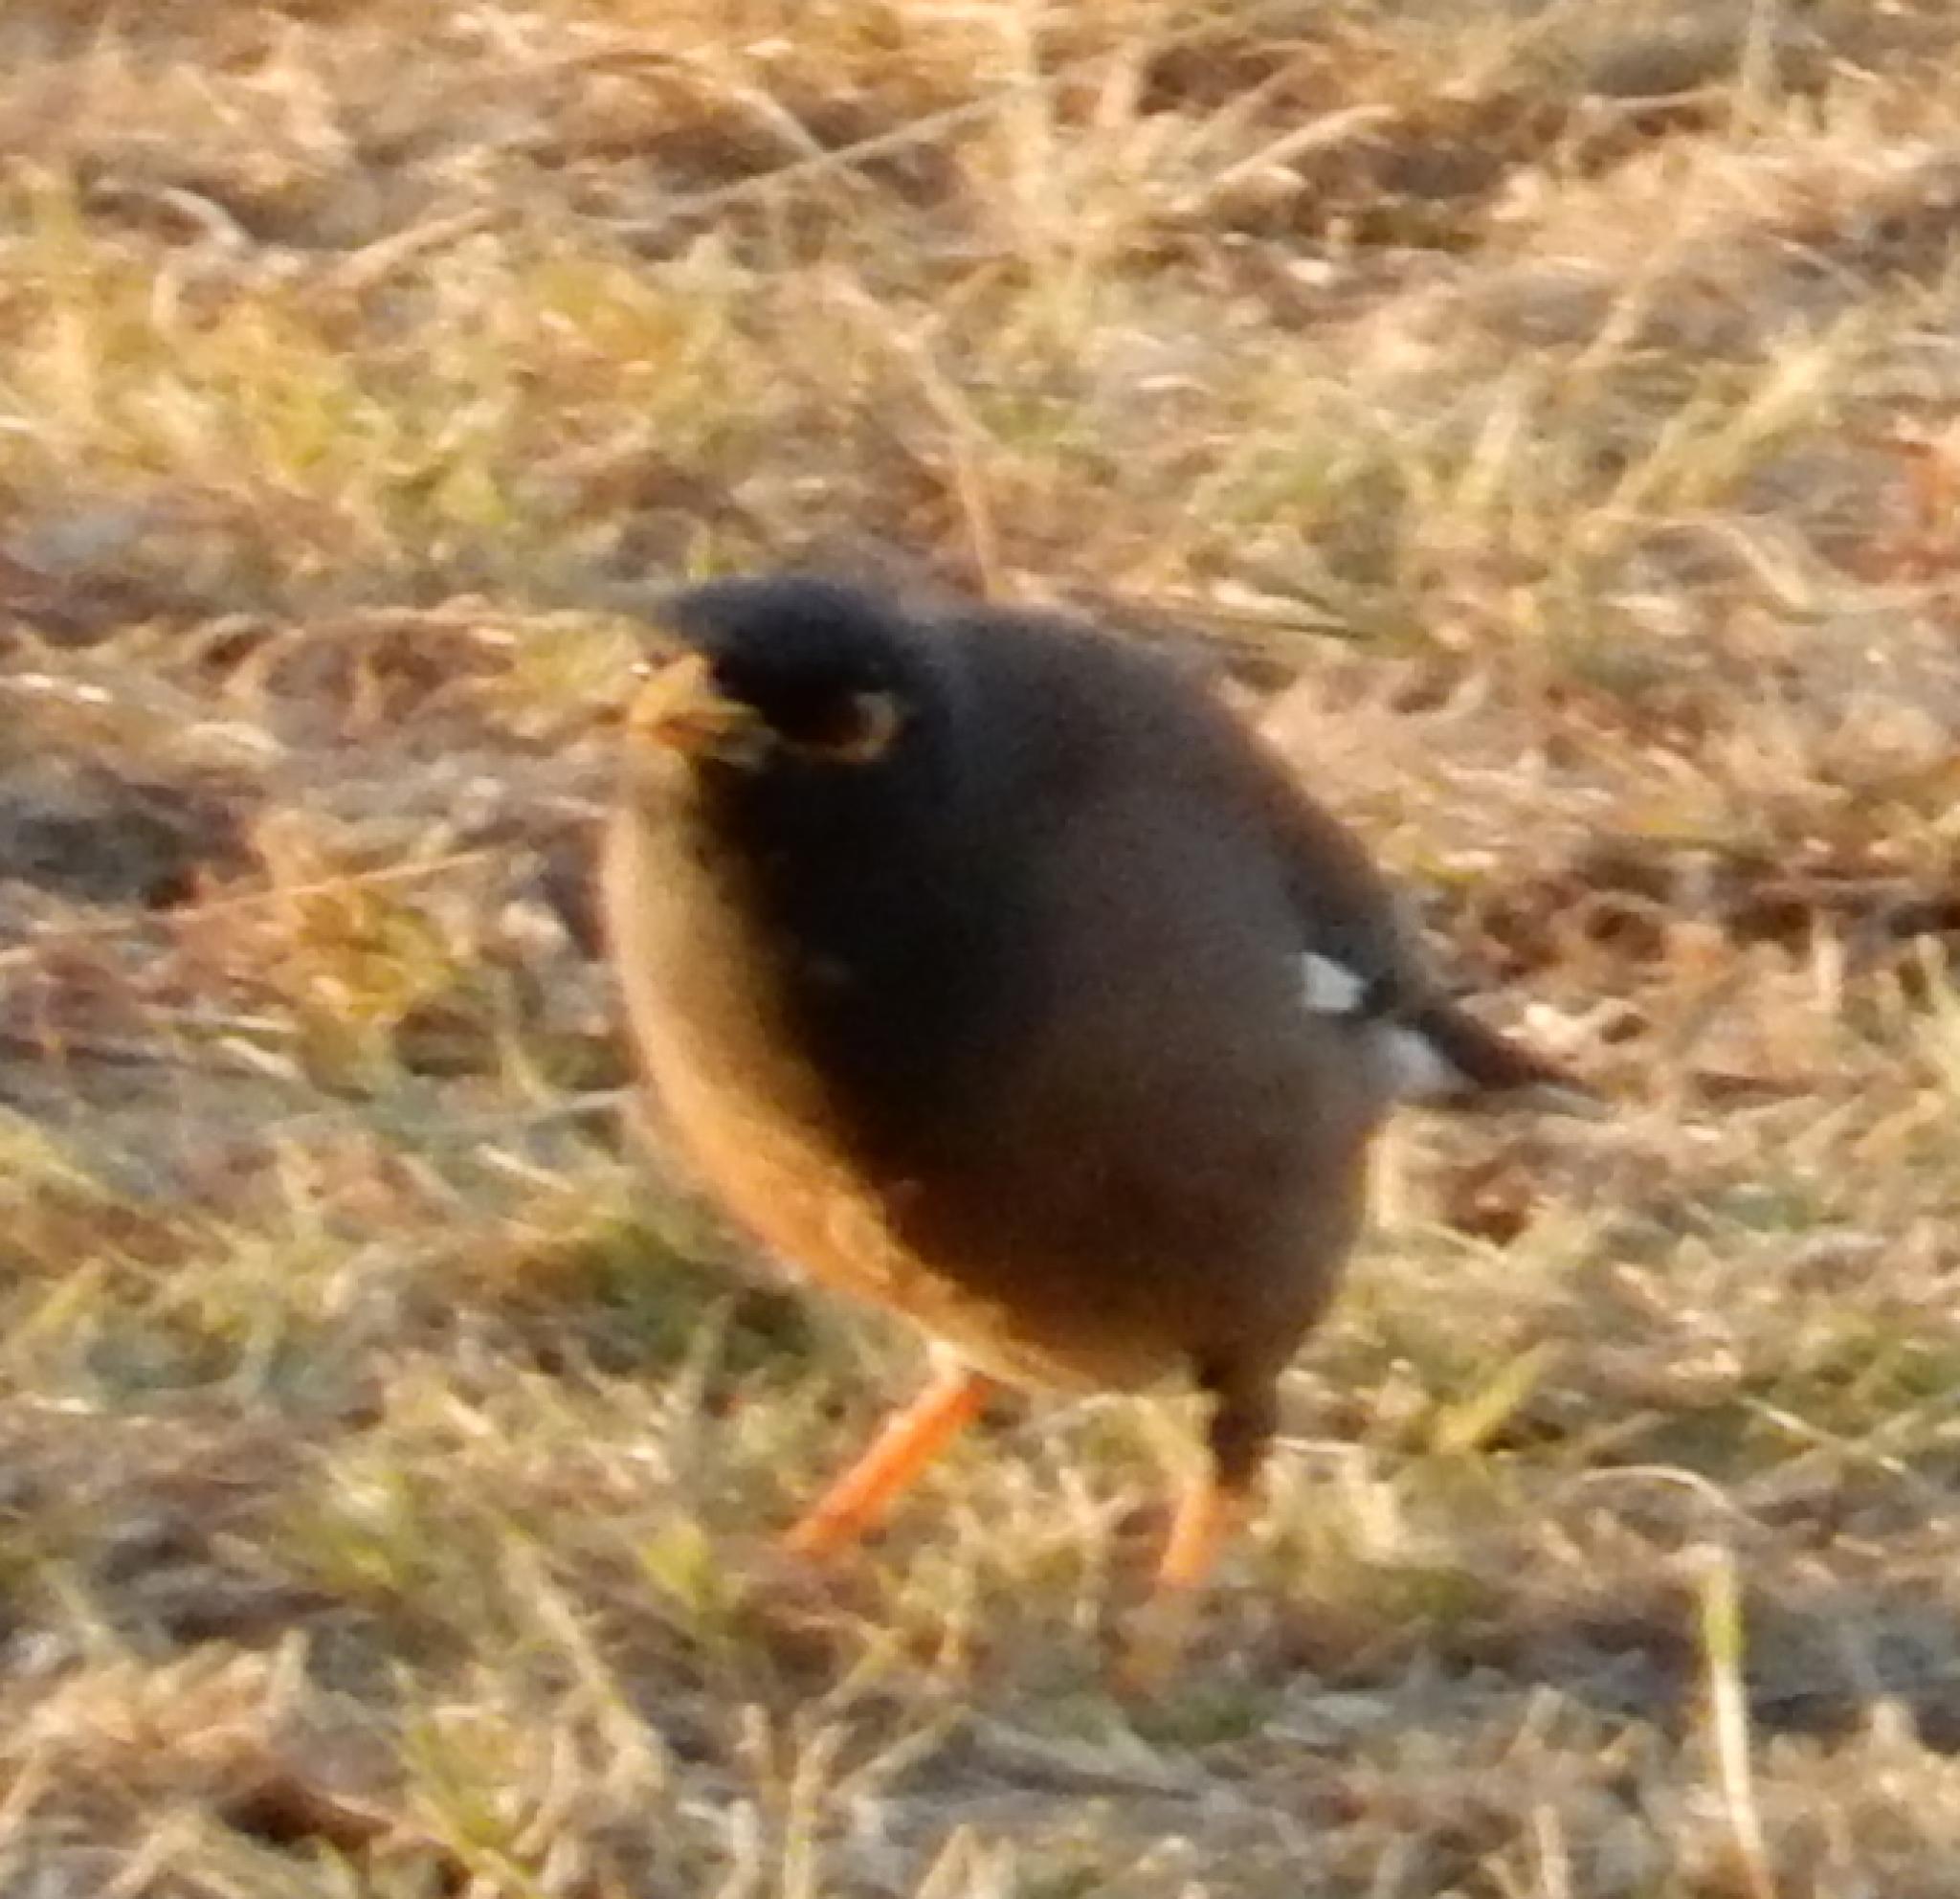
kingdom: Animalia
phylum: Chordata
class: Aves
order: Passeriformes
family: Sturnidae
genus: Acridotheres
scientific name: Acridotheres tristis
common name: Common myna
